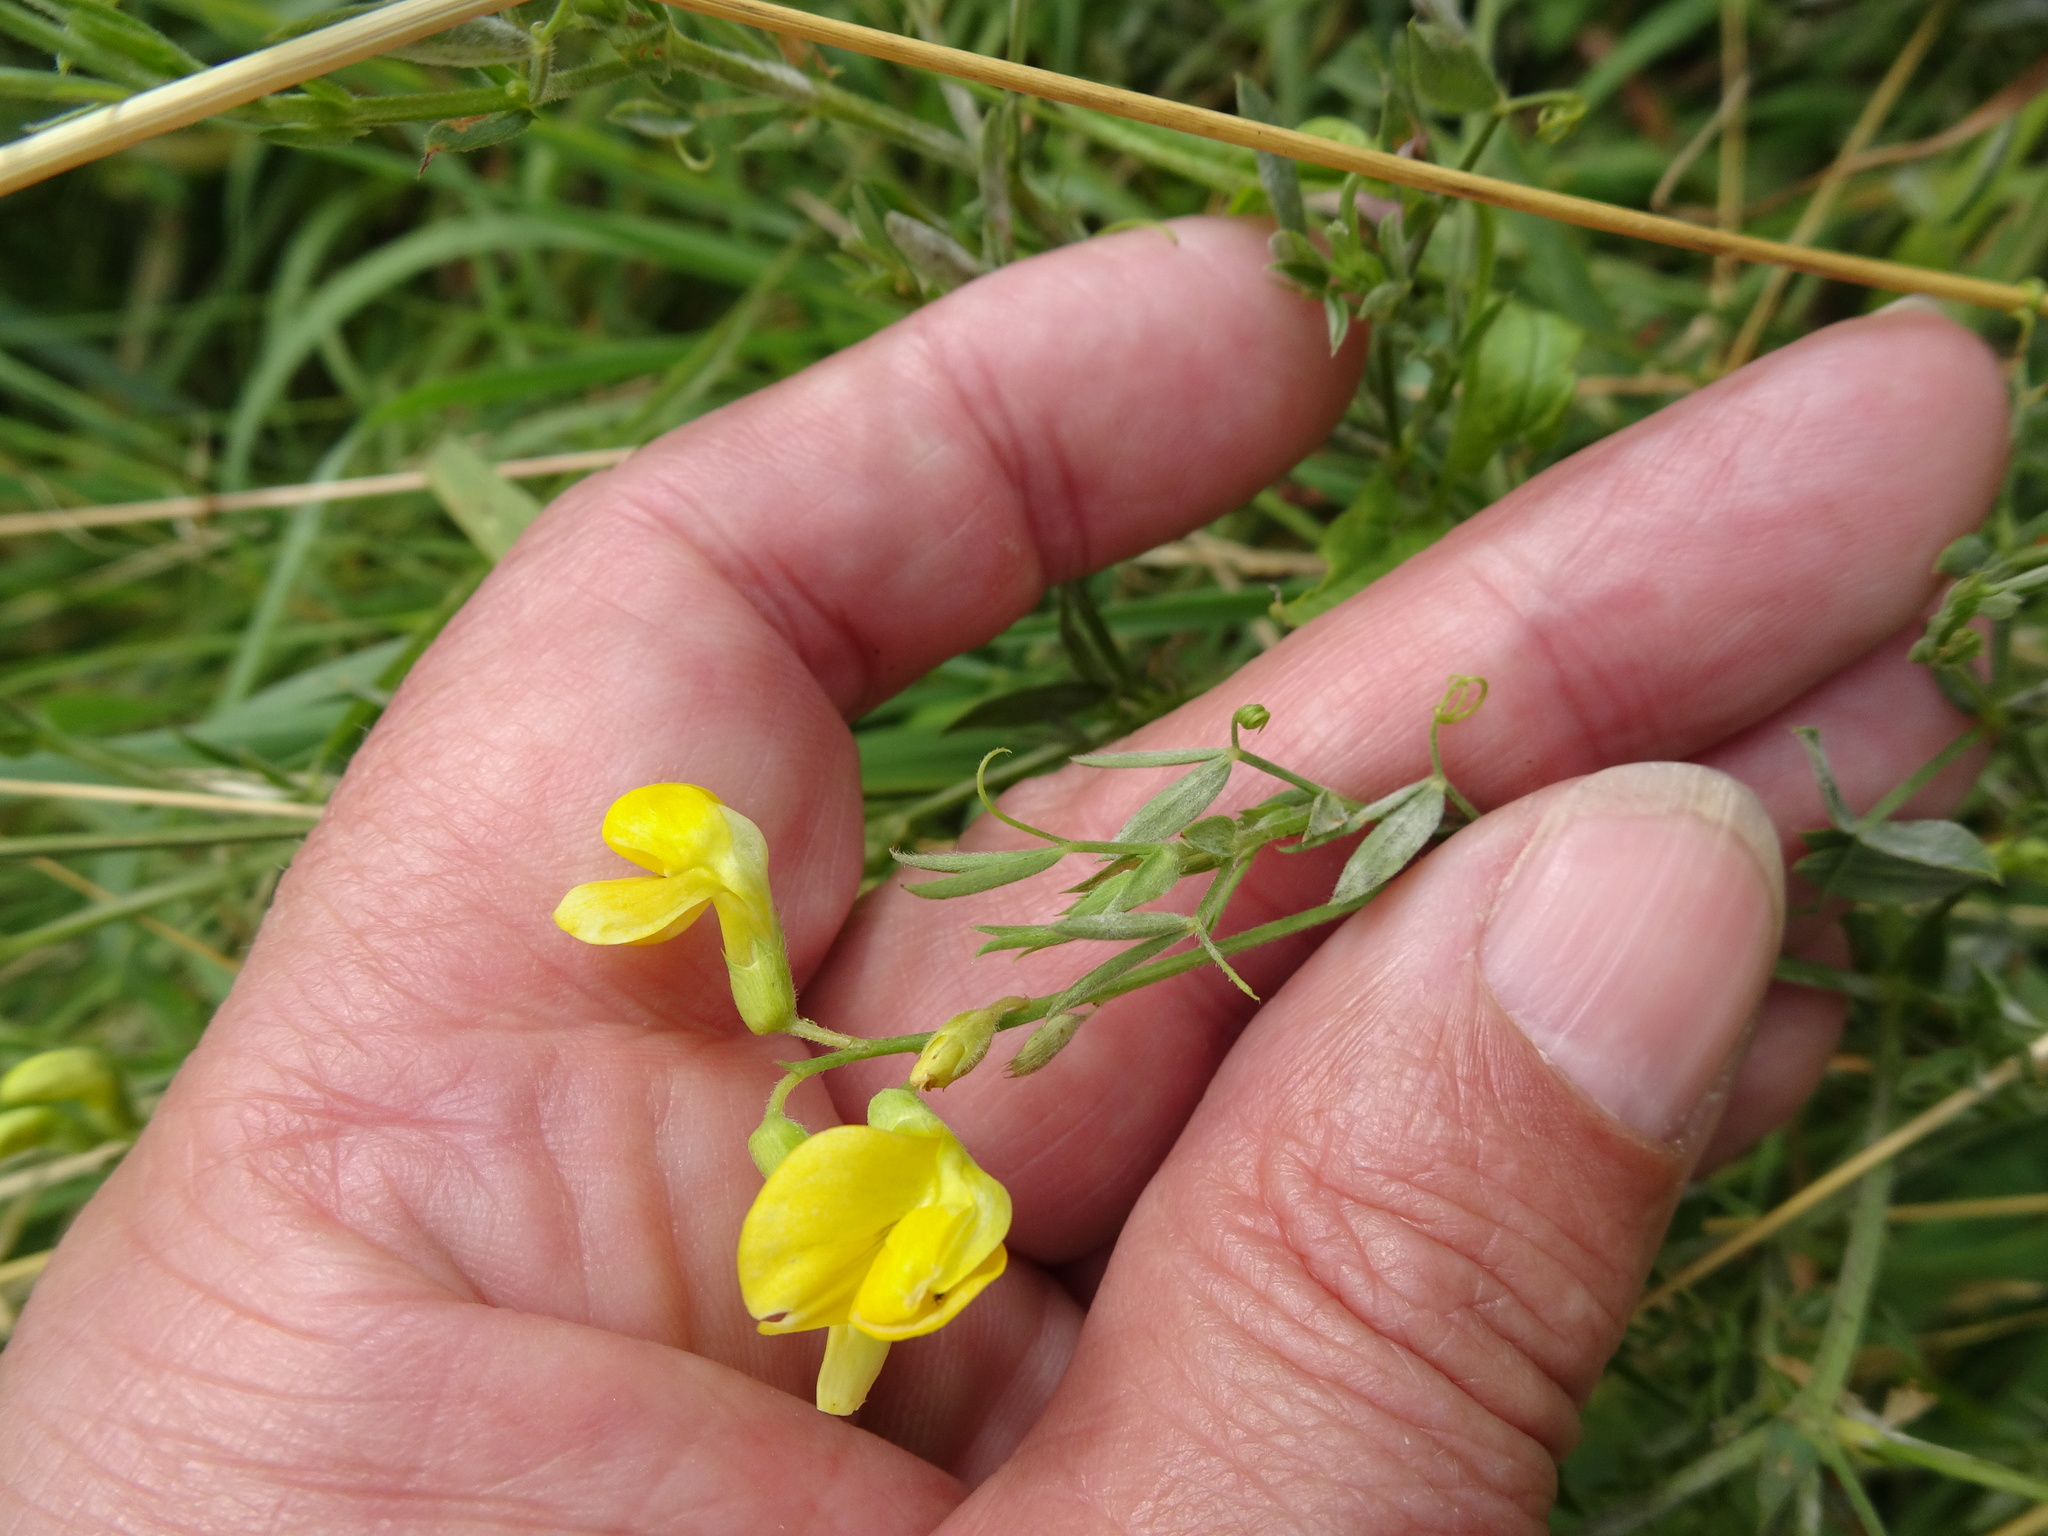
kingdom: Plantae
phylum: Tracheophyta
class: Magnoliopsida
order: Fabales
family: Fabaceae
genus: Lathyrus
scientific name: Lathyrus pratensis
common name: Meadow vetchling
